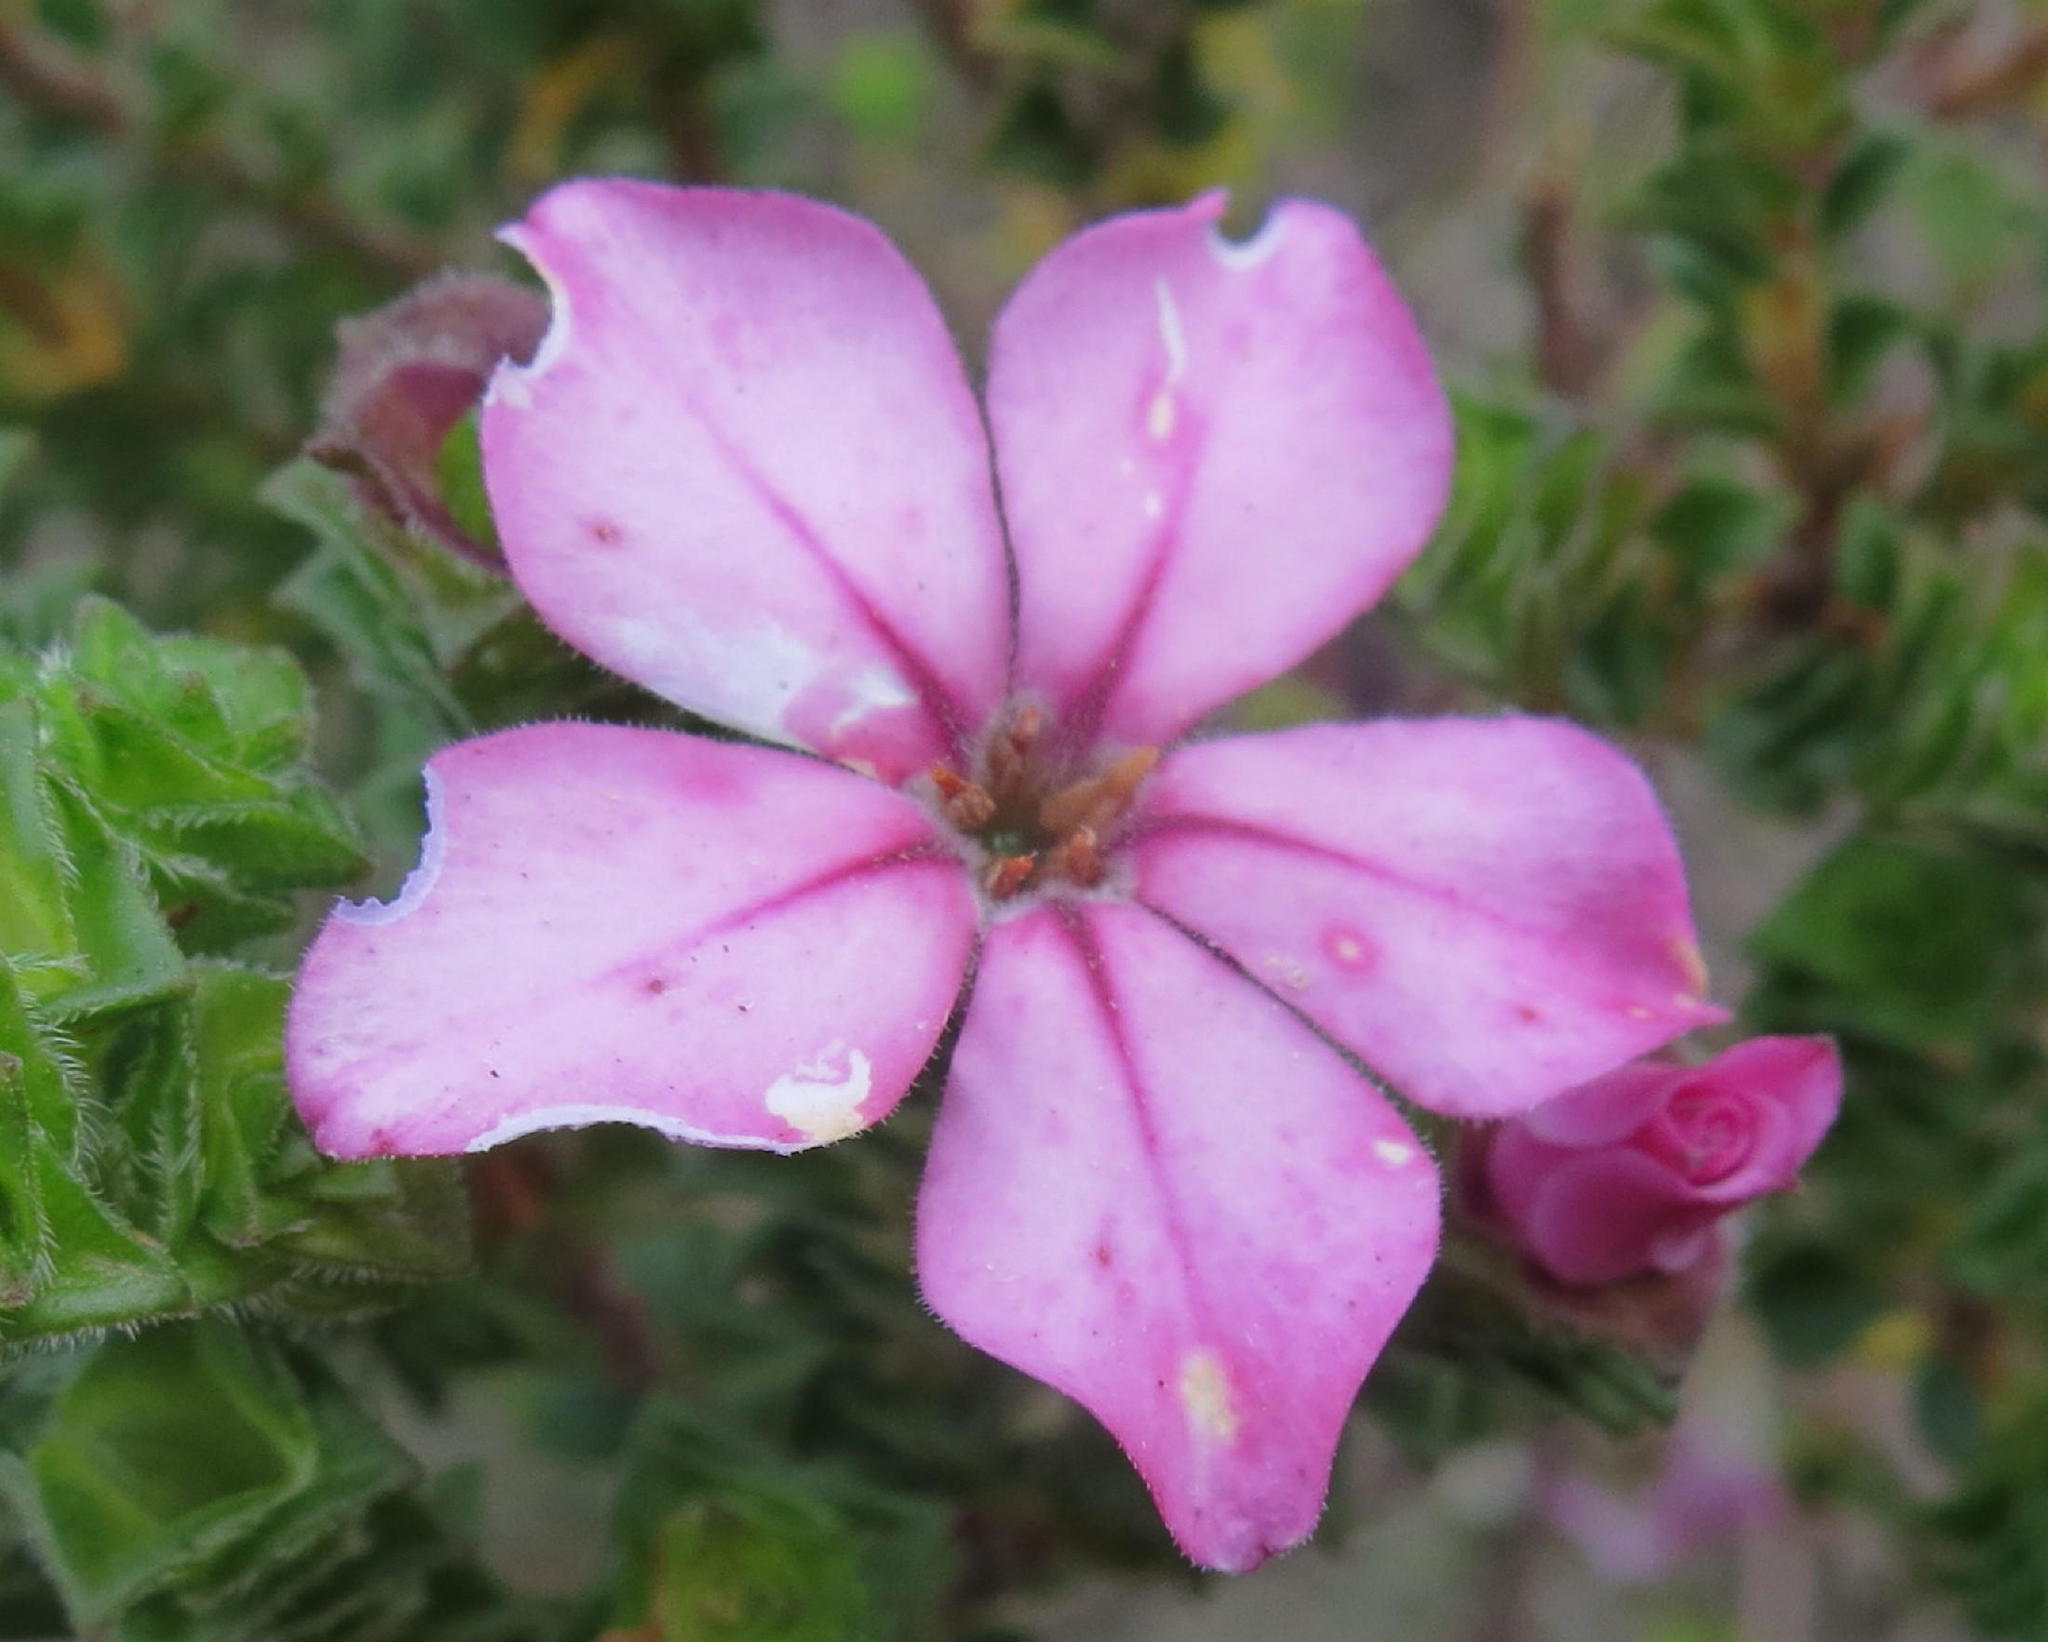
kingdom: Plantae
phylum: Tracheophyta
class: Magnoliopsida
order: Sapindales
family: Rutaceae
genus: Acmadenia
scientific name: Acmadenia tetragona
